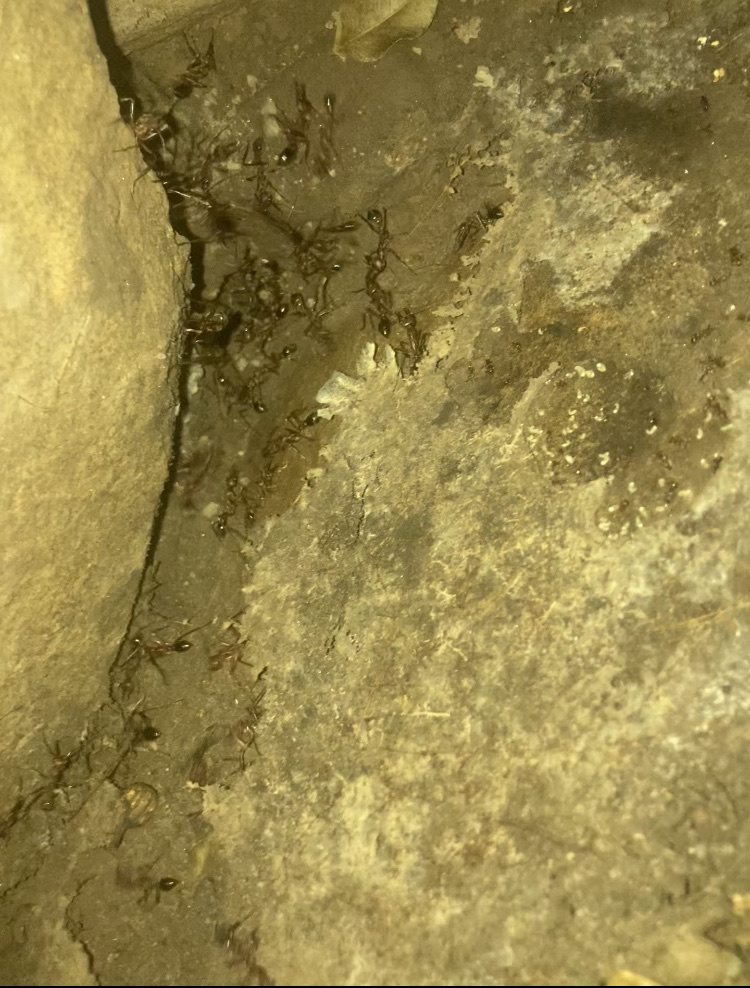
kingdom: Animalia
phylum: Arthropoda
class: Insecta
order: Hymenoptera
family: Formicidae
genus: Myrmecia
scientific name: Myrmecia brevinoda
